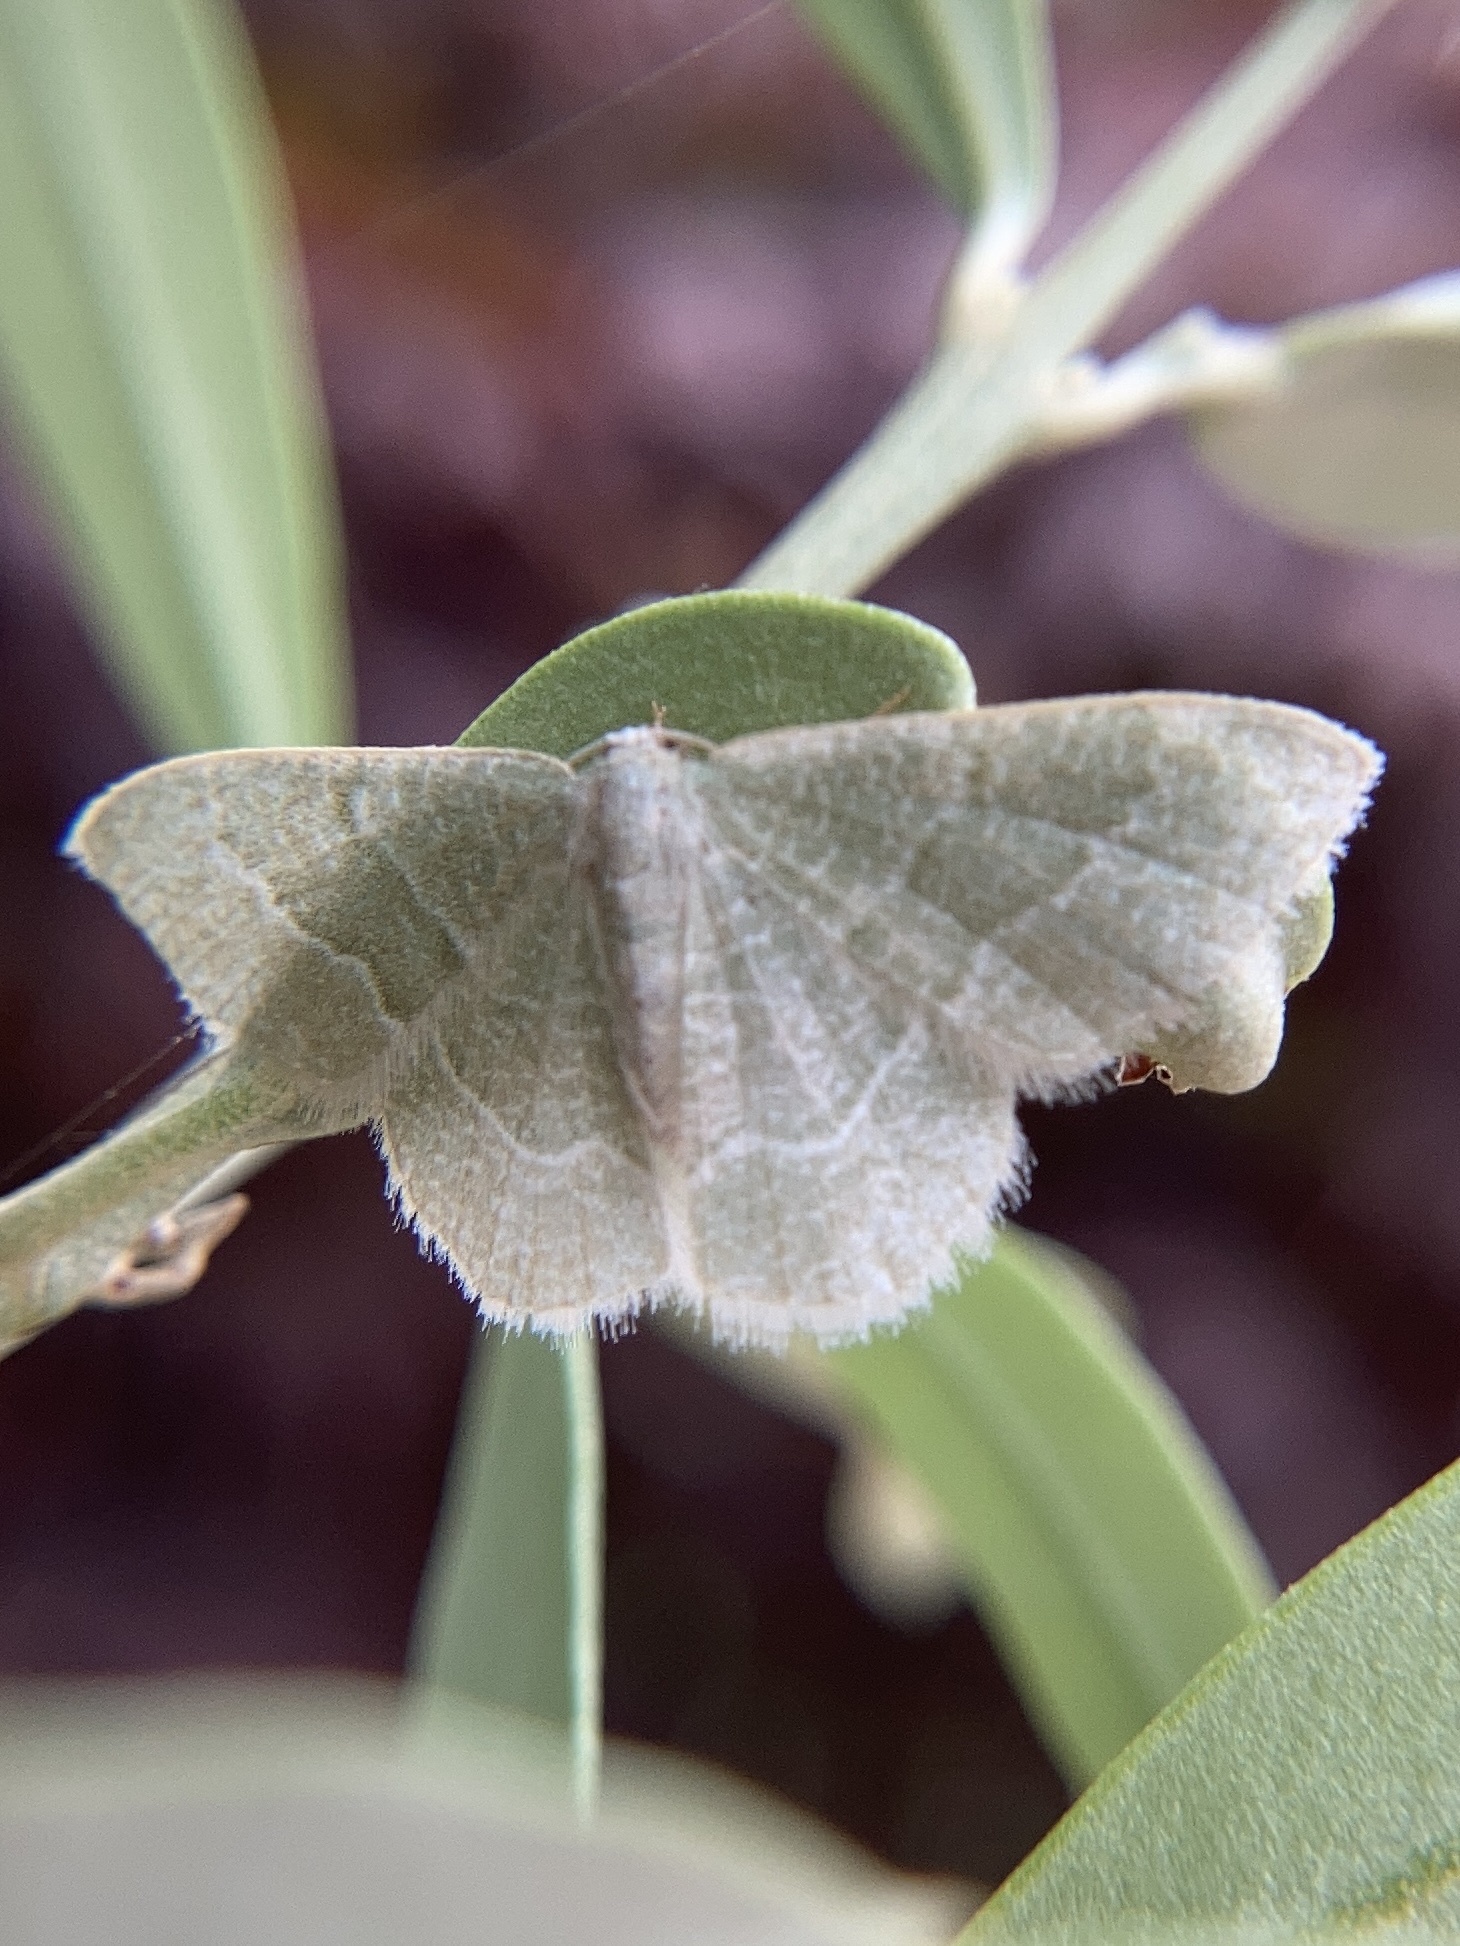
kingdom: Animalia
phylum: Arthropoda
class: Insecta
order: Lepidoptera
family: Geometridae
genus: Chlorissa
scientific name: Chlorissa etruscaria
